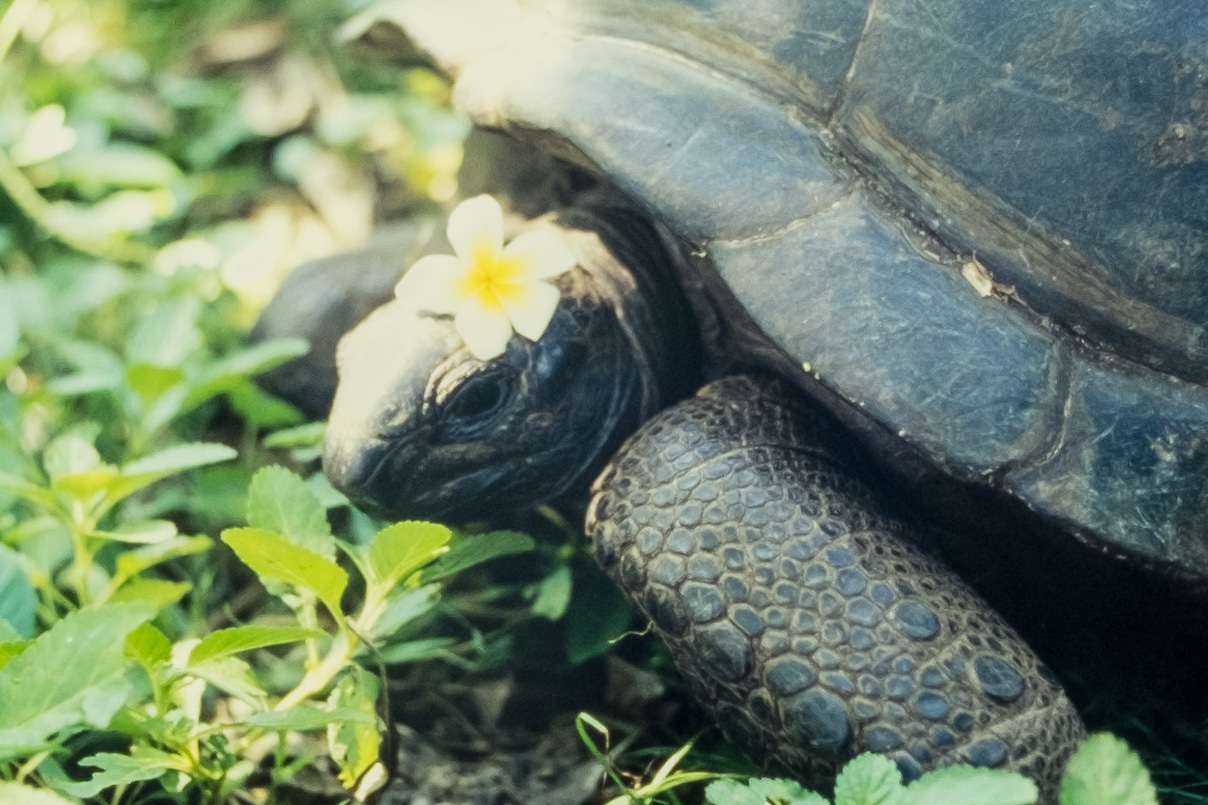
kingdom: Animalia
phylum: Chordata
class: Testudines
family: Testudinidae
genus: Aldabrachelys
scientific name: Aldabrachelys gigantea
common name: Aldabra giant tortoise
